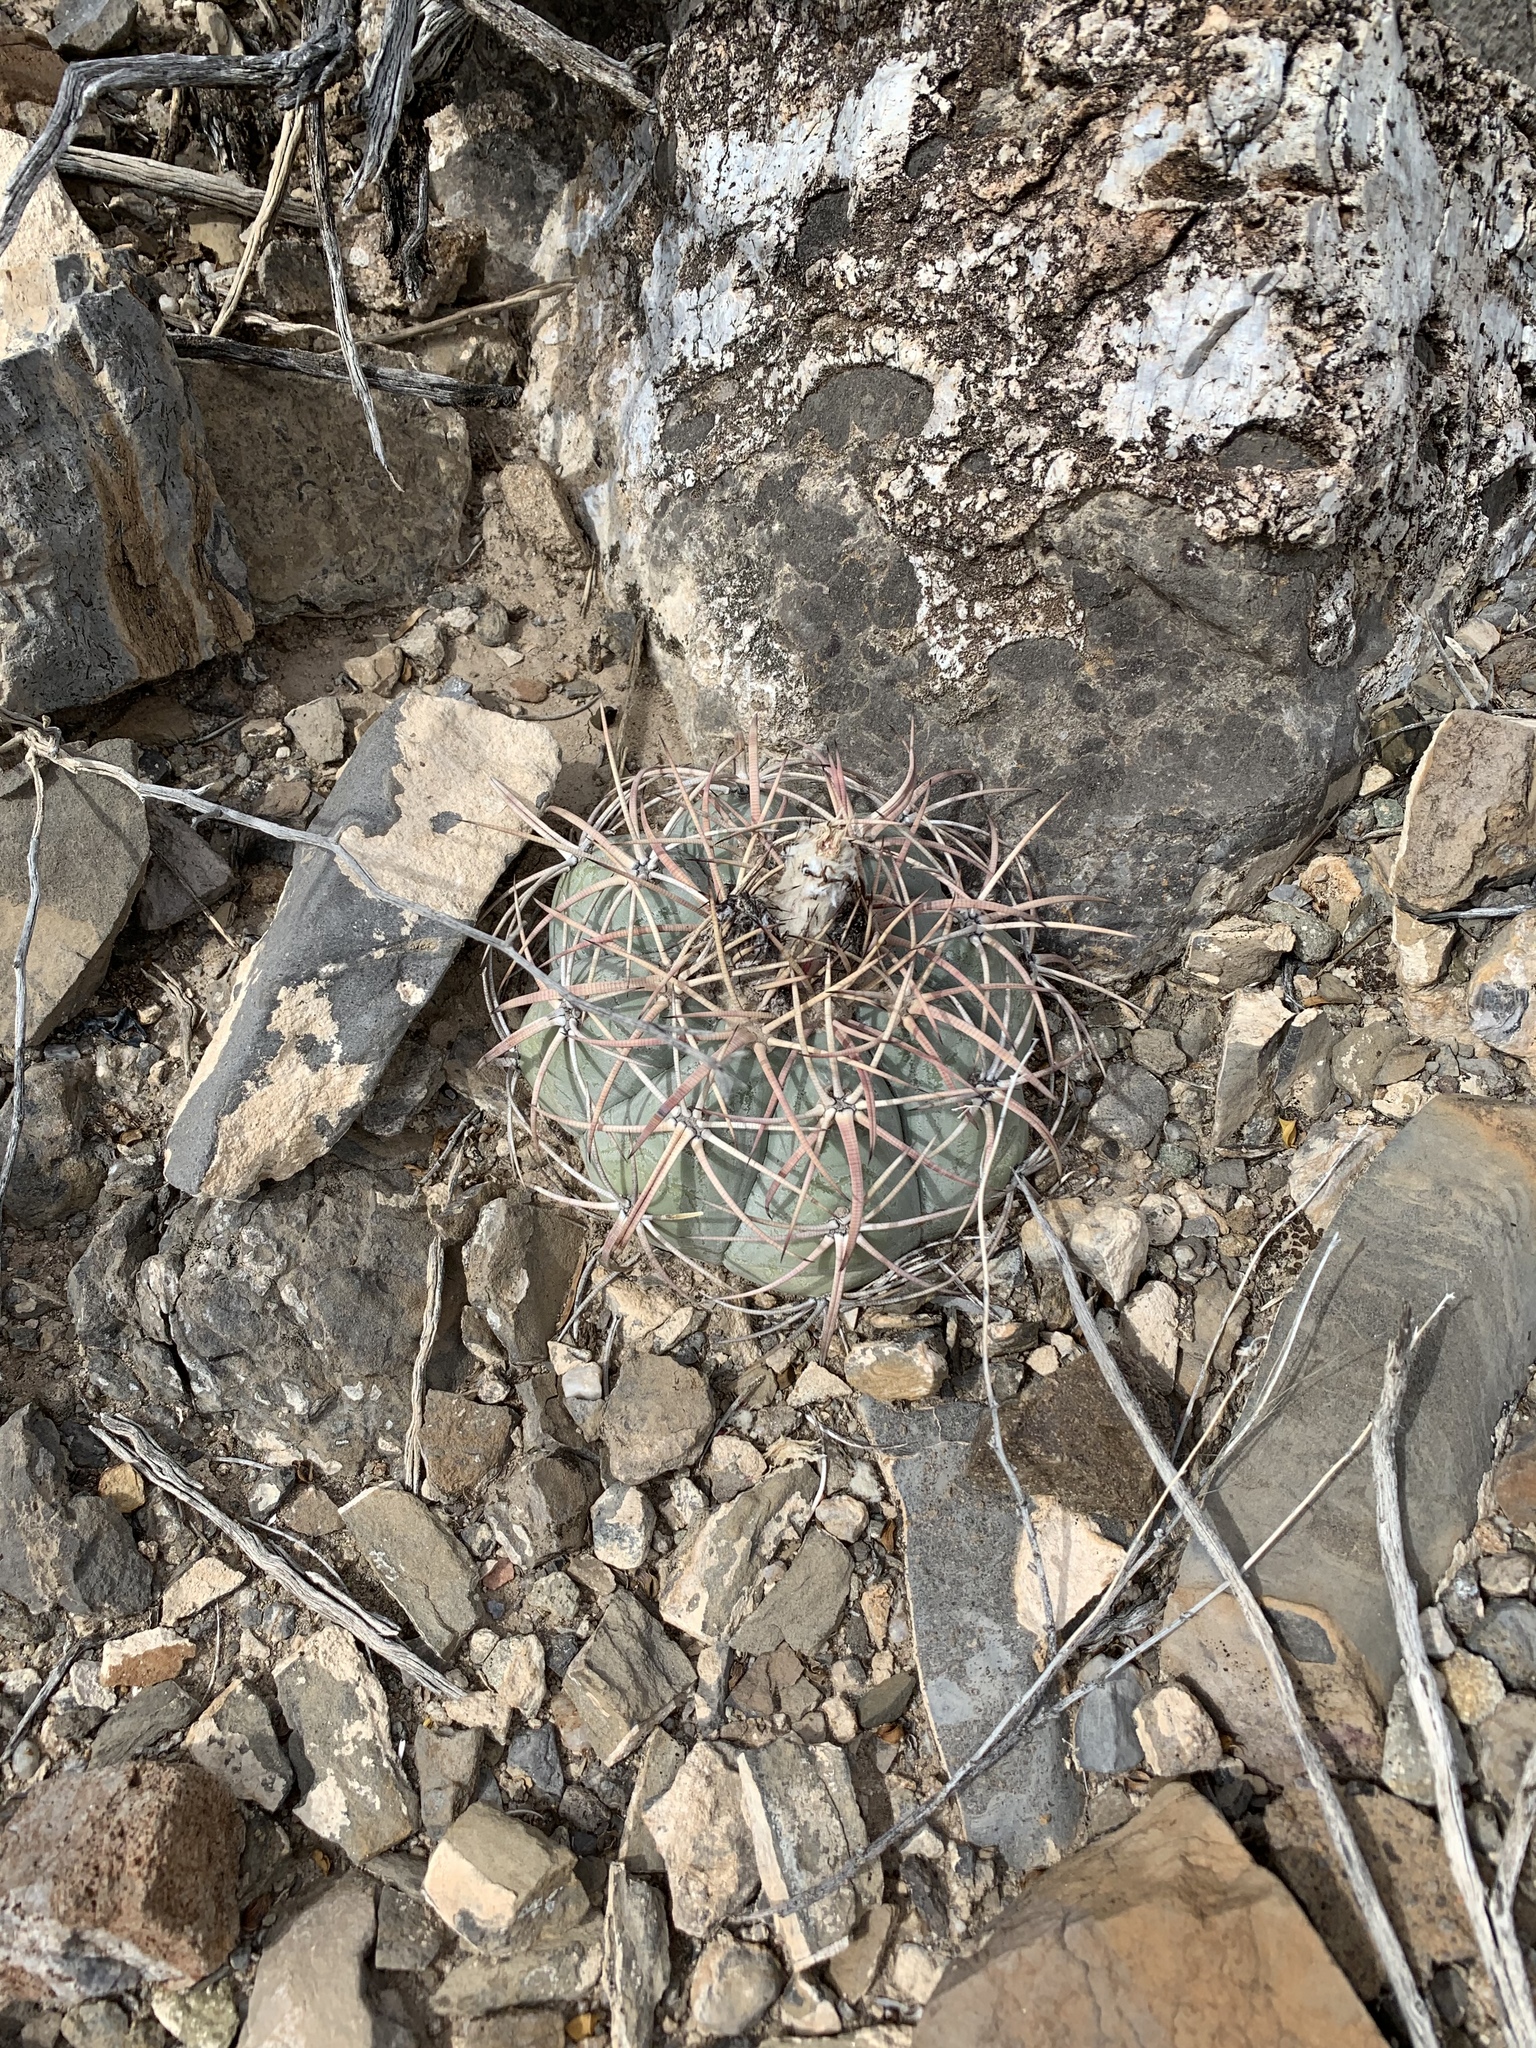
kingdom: Plantae
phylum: Tracheophyta
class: Magnoliopsida
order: Caryophyllales
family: Cactaceae
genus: Echinocactus
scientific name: Echinocactus horizonthalonius
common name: Devilshead
